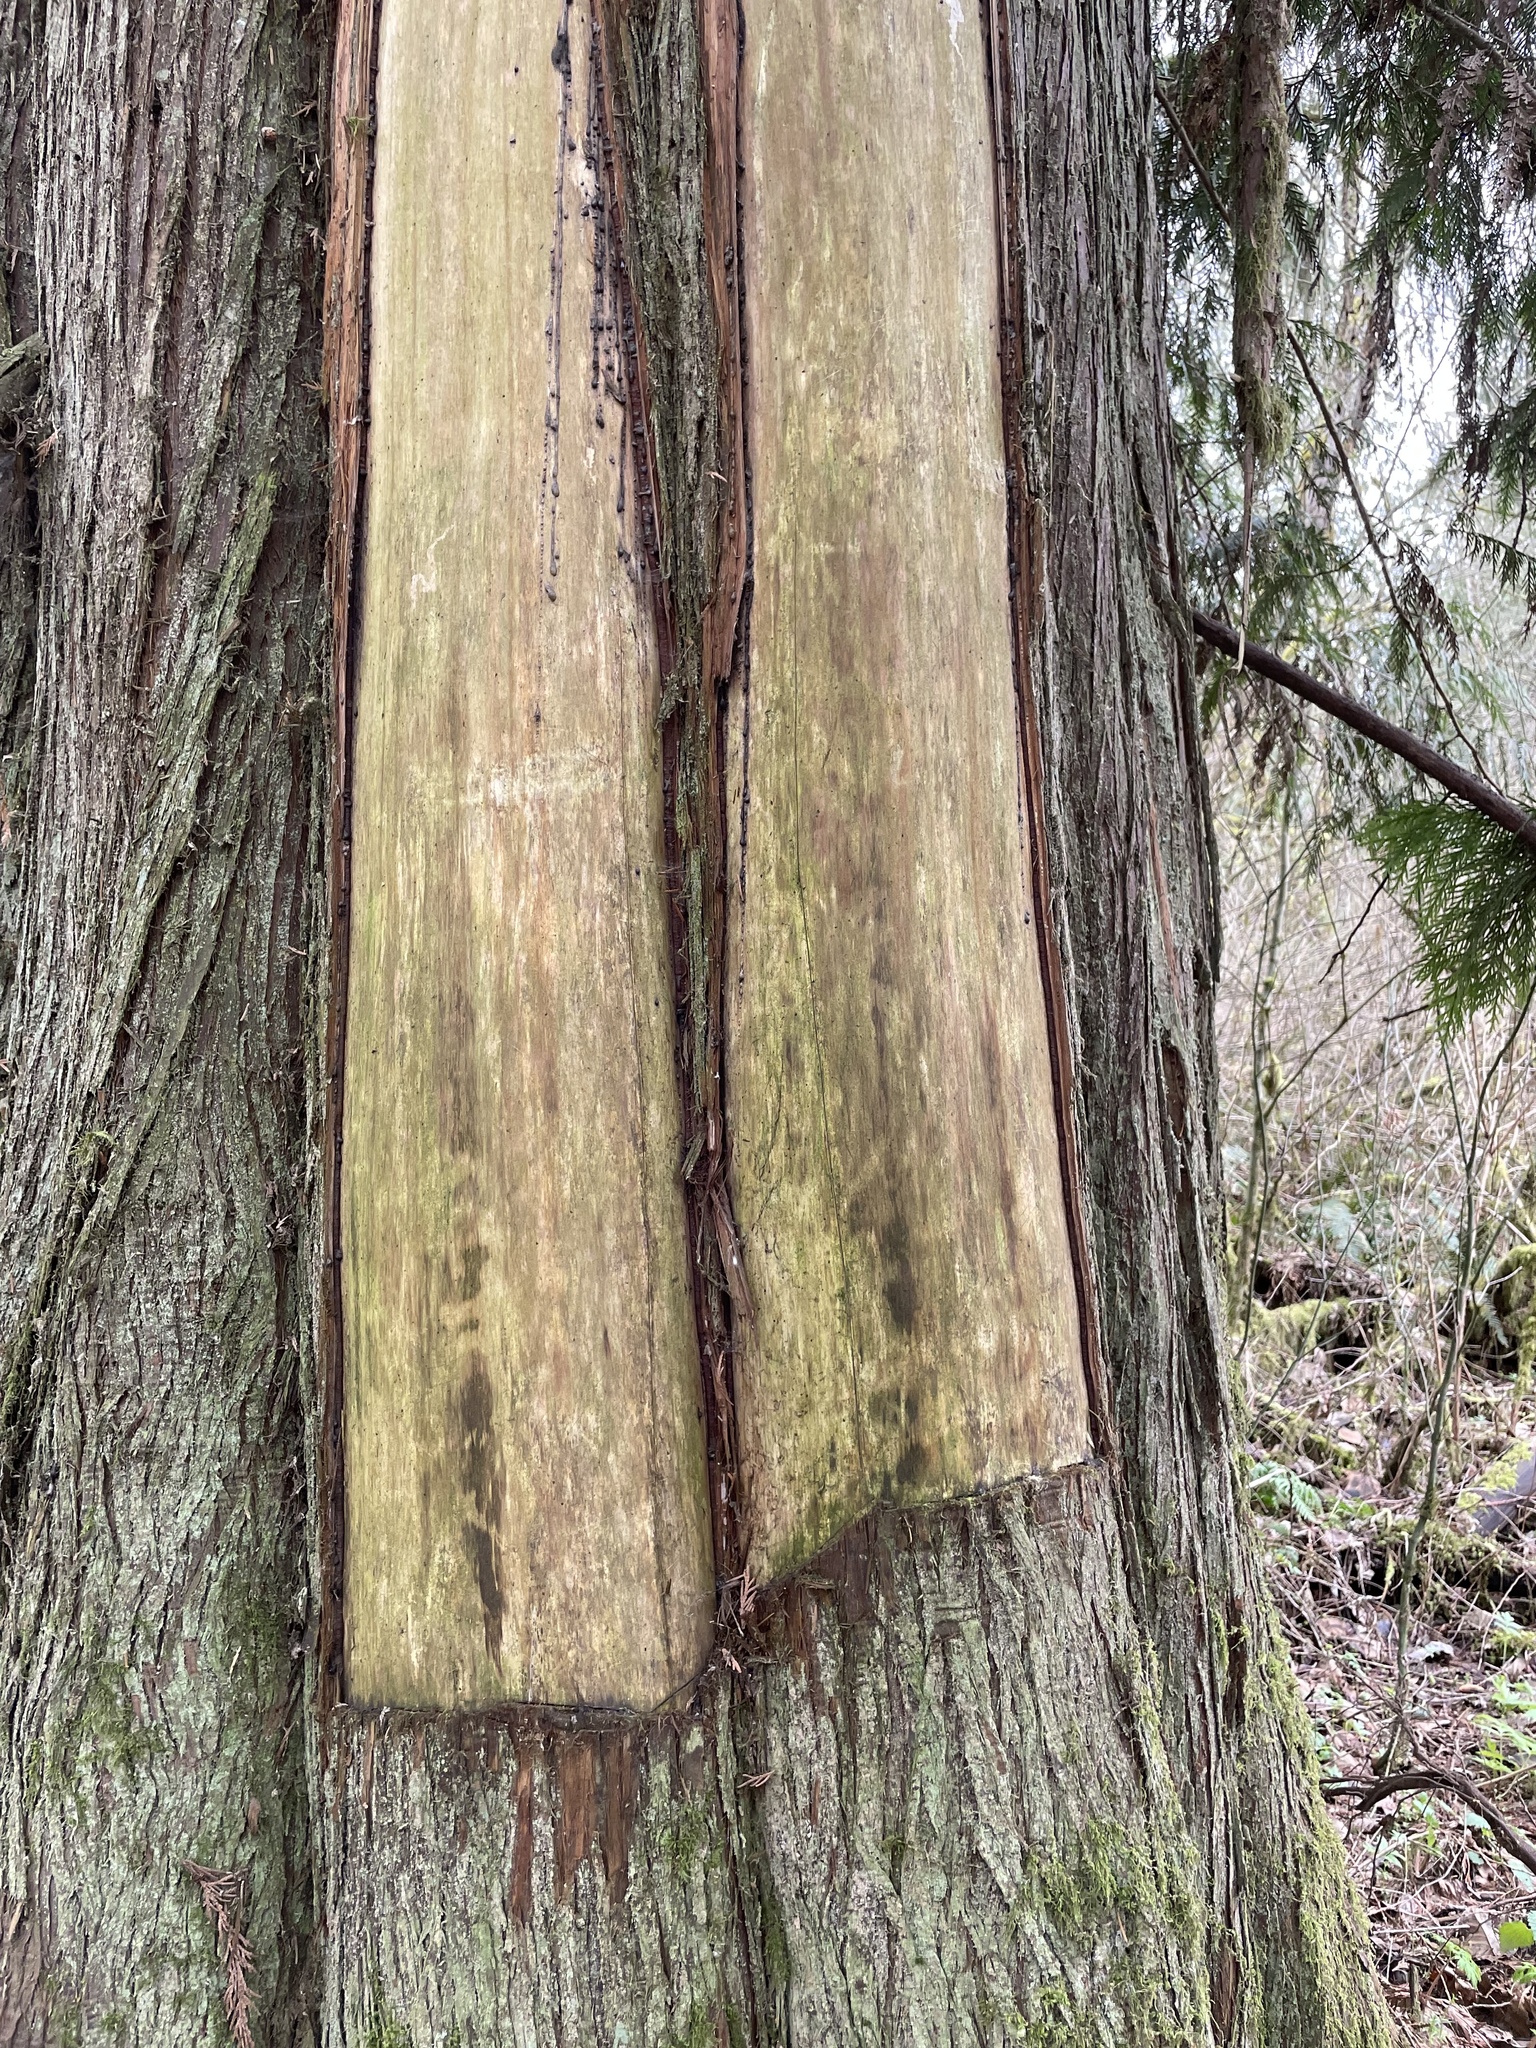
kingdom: Plantae
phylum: Tracheophyta
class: Pinopsida
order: Pinales
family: Cupressaceae
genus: Thuja
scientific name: Thuja plicata
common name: Western red-cedar
